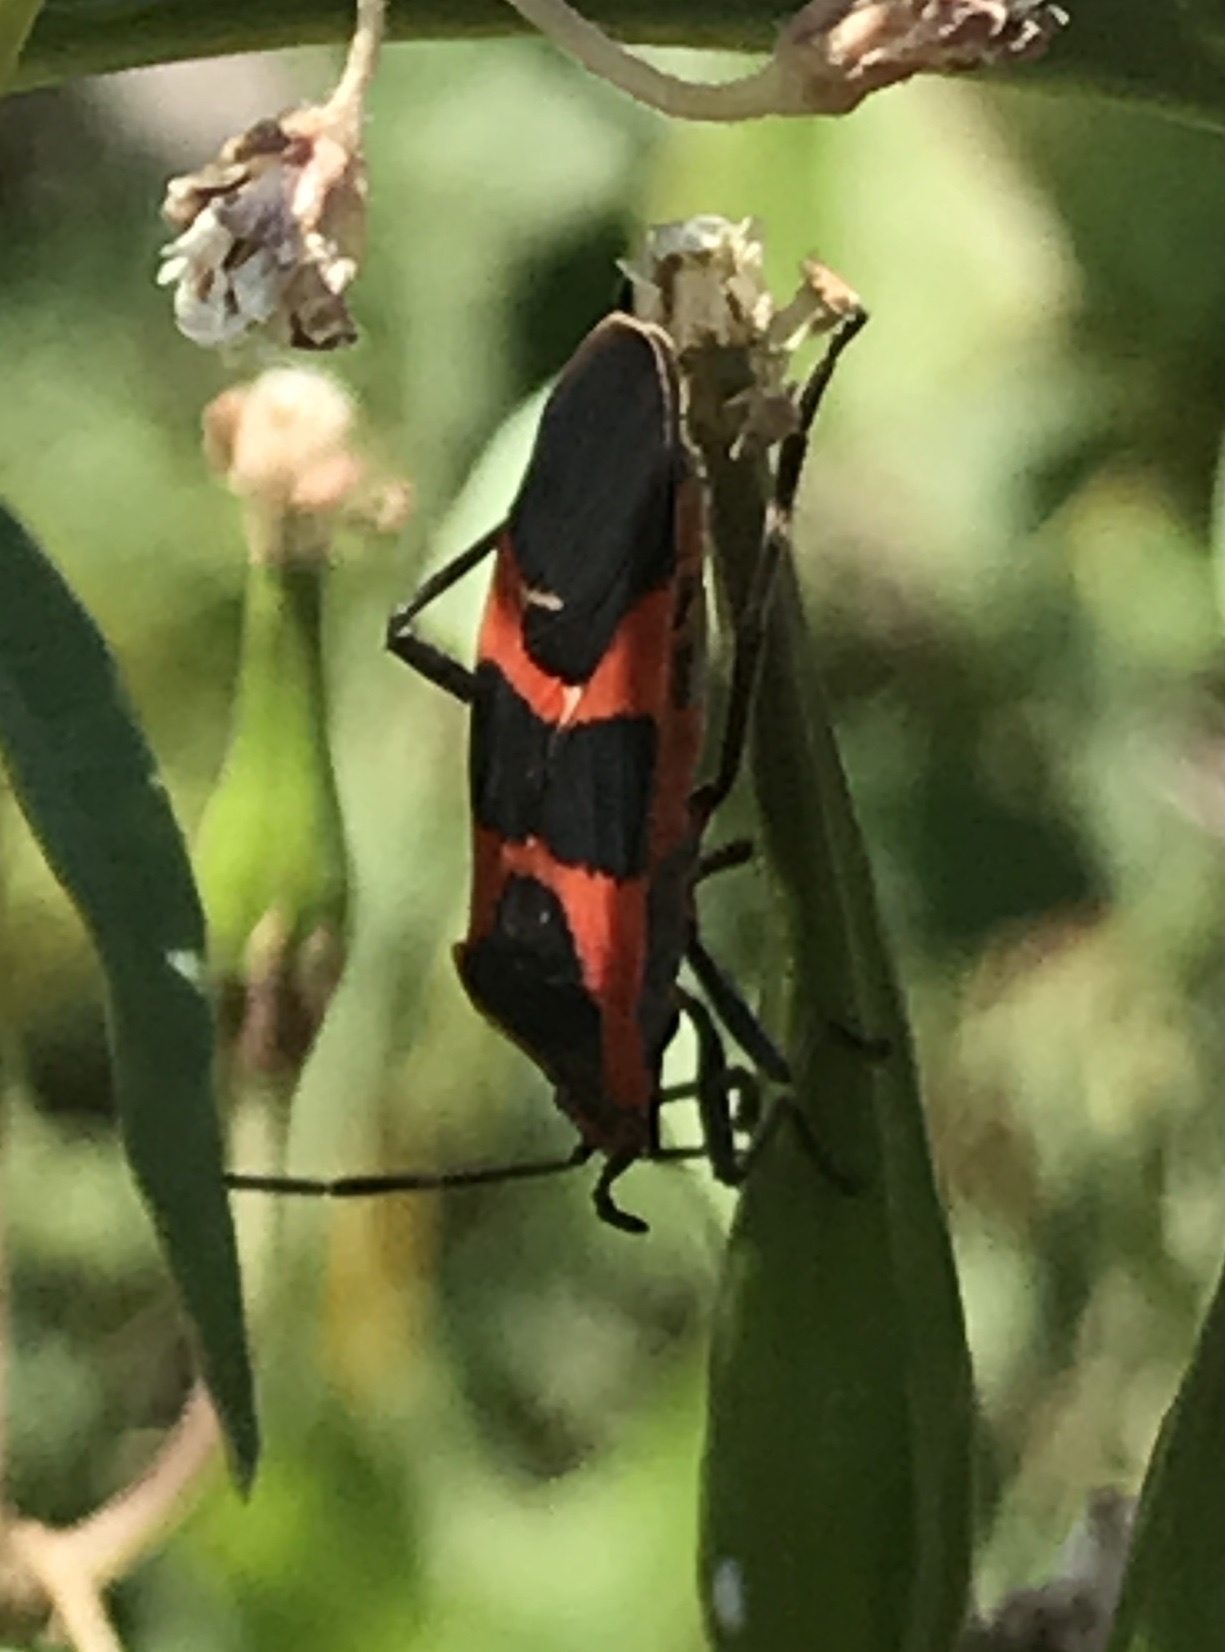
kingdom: Animalia
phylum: Arthropoda
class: Insecta
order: Hemiptera
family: Lygaeidae
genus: Oncopeltus
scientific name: Oncopeltus fasciatus
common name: Large milkweed bug
